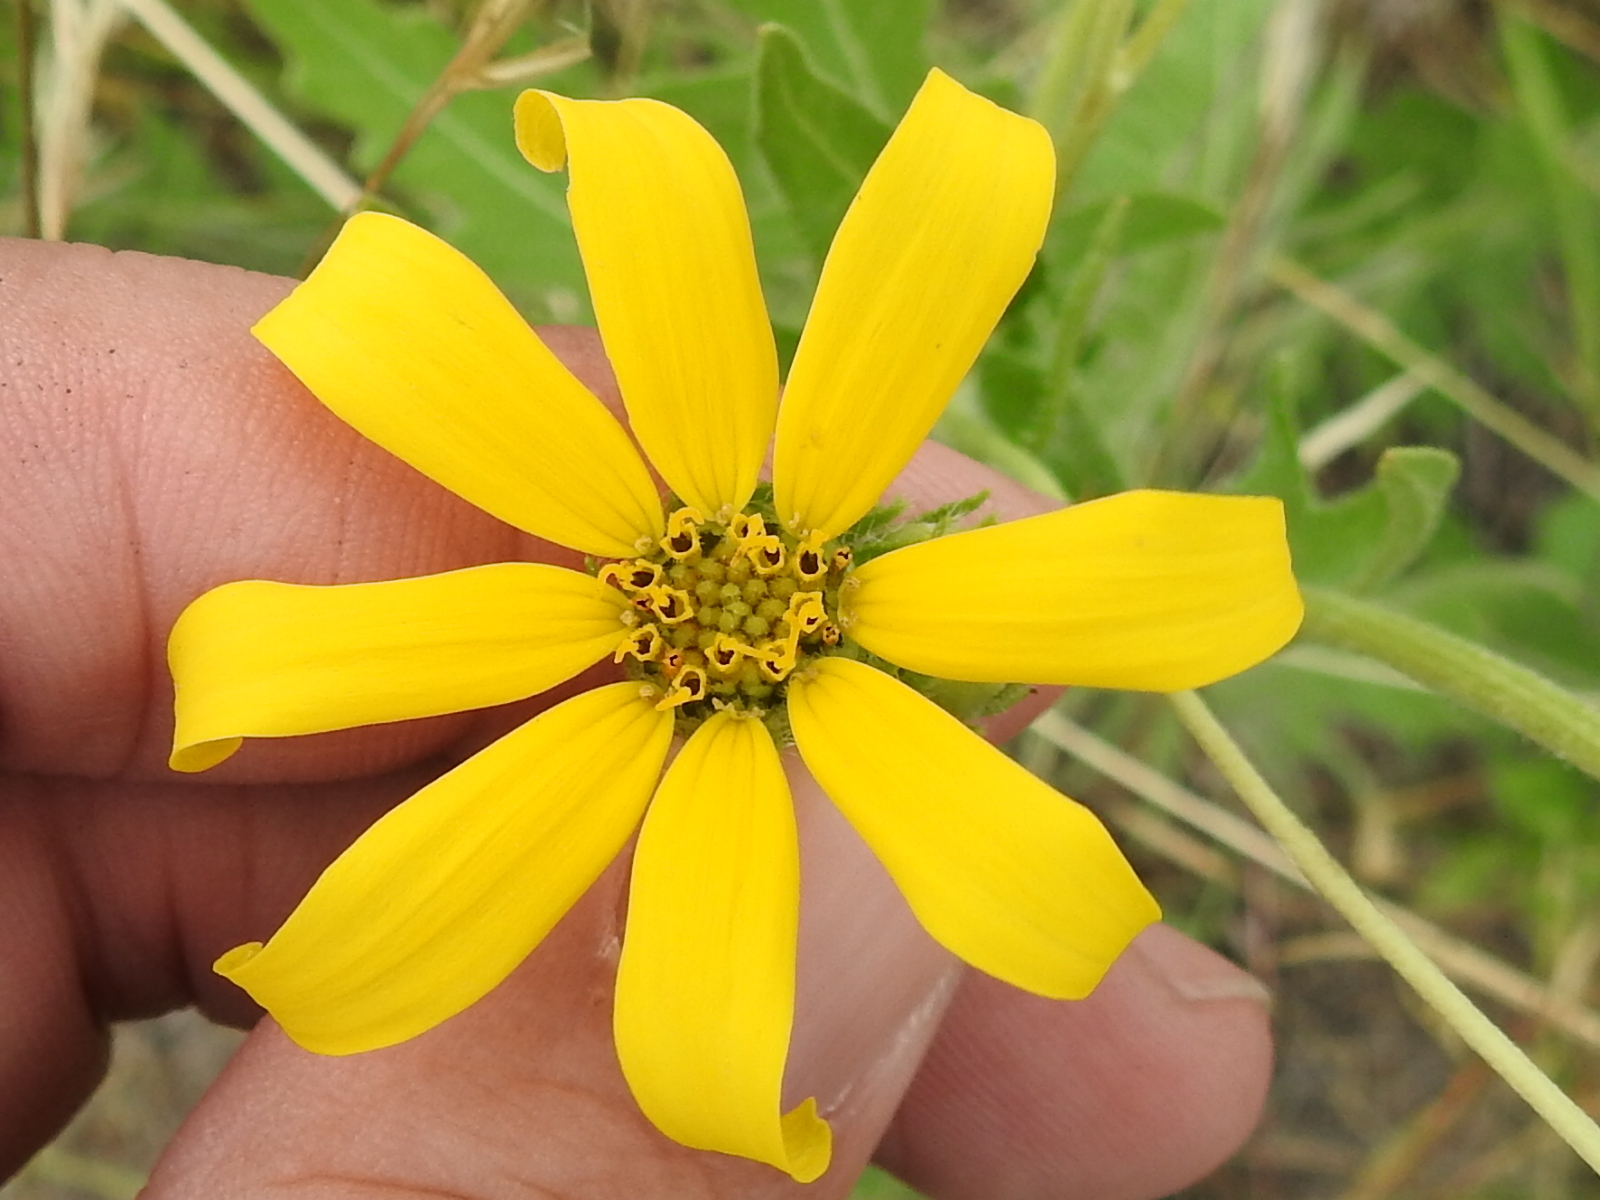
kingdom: Plantae
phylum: Tracheophyta
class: Magnoliopsida
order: Asterales
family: Asteraceae
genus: Engelmannia
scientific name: Engelmannia peristenia
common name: Engelmann's daisy
